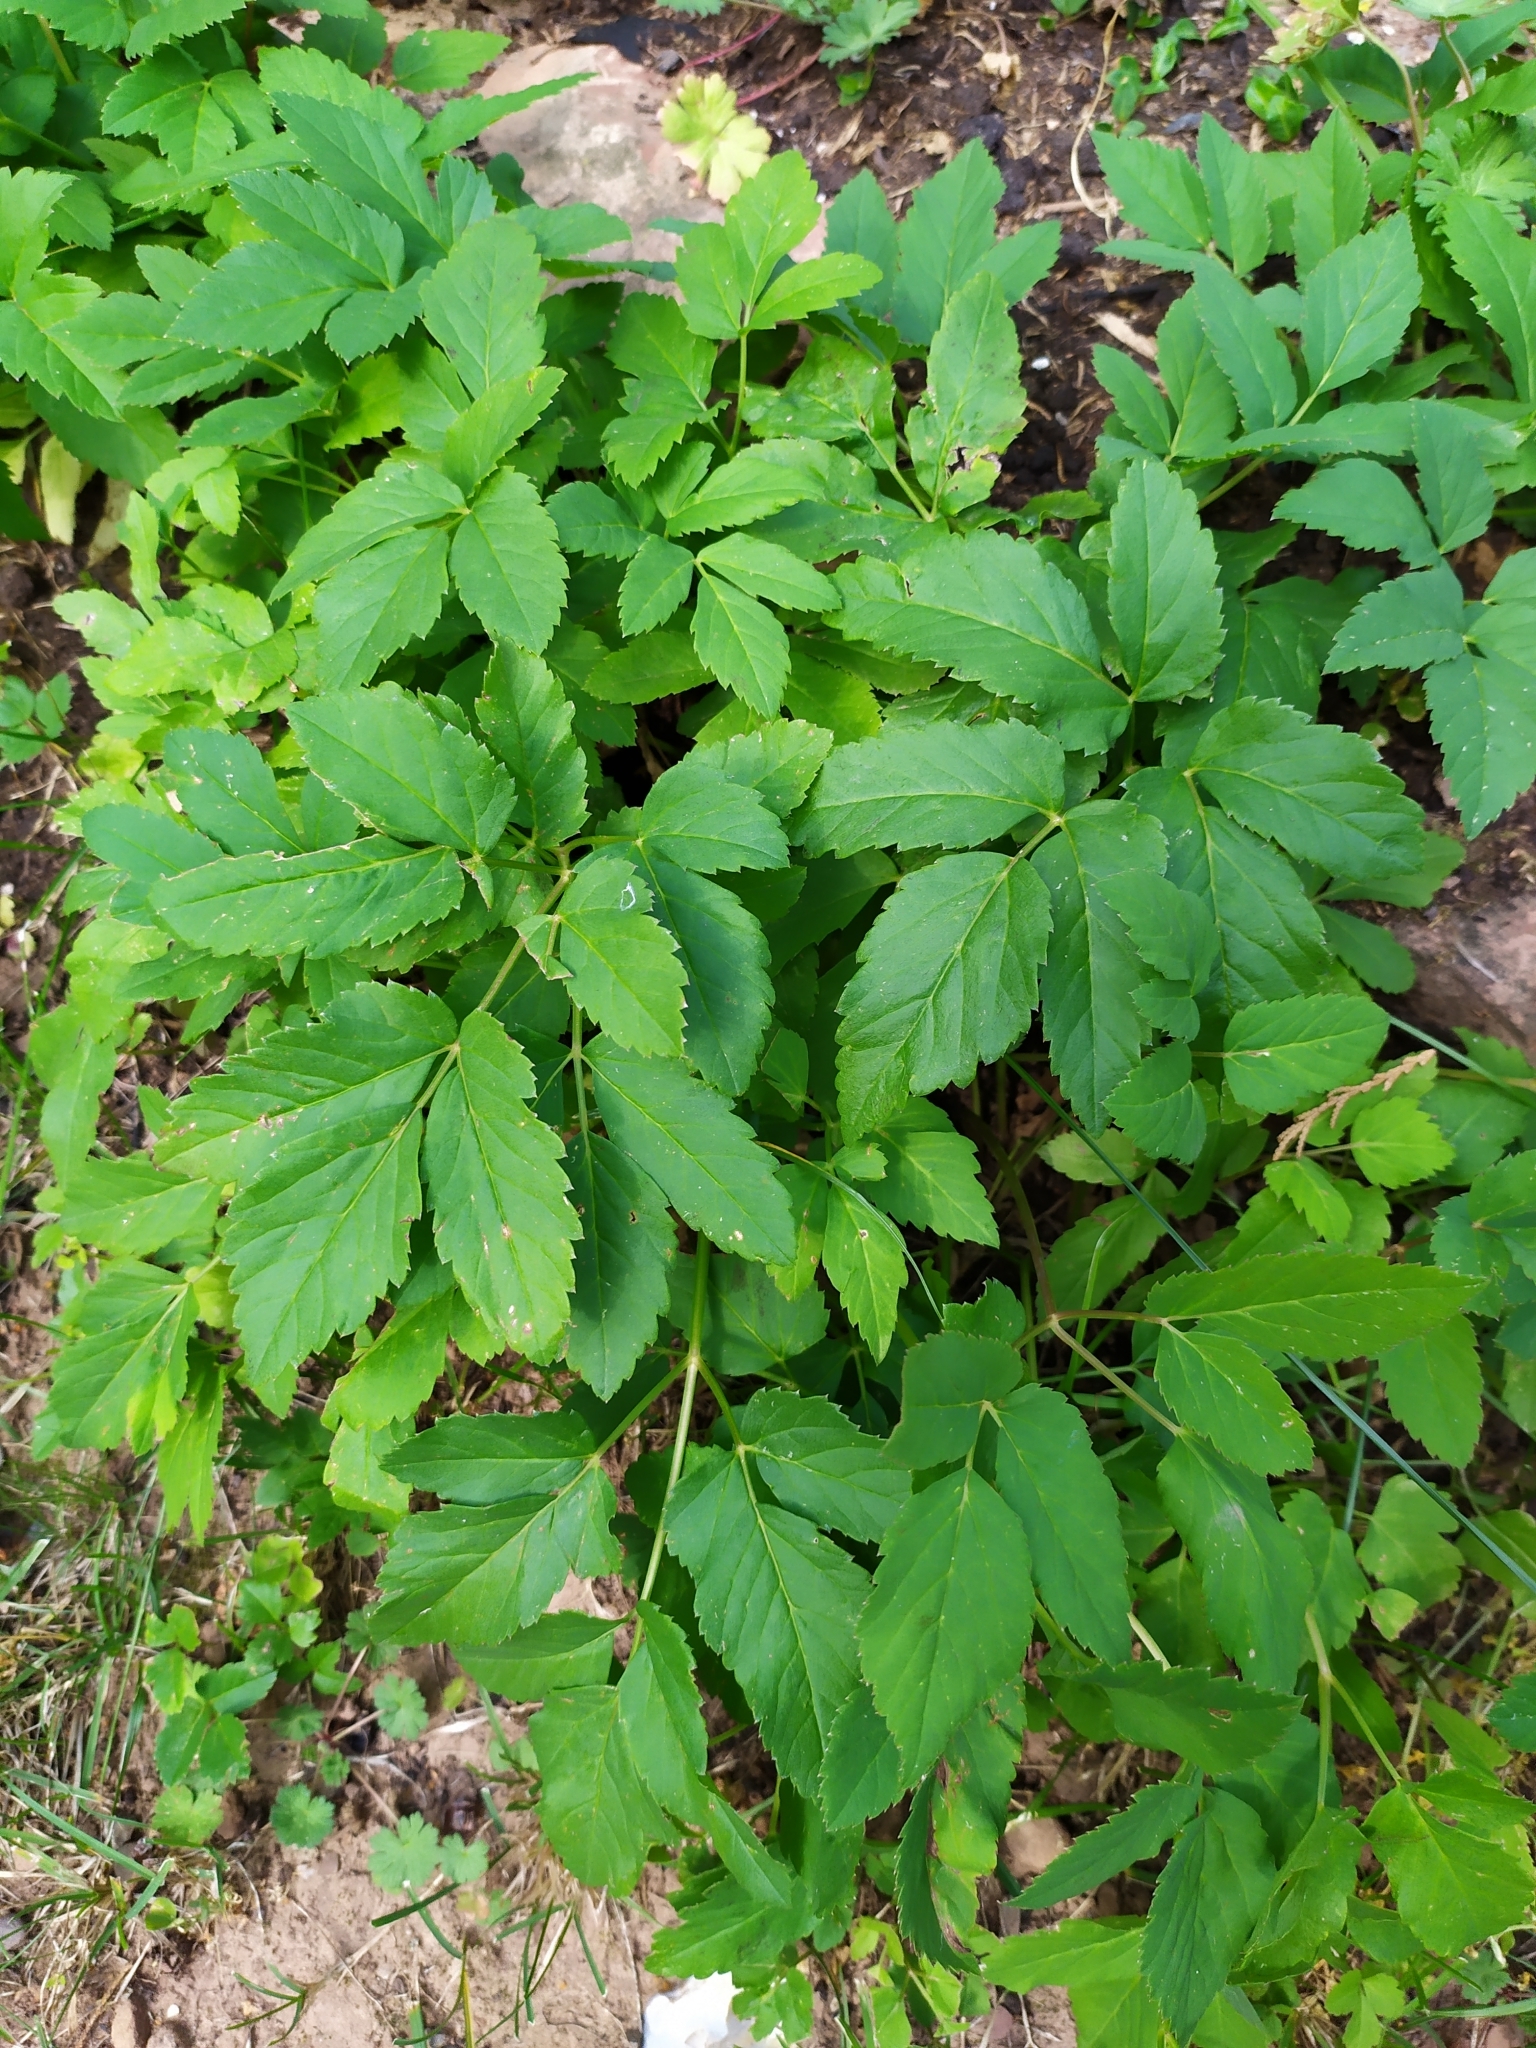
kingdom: Plantae
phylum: Tracheophyta
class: Magnoliopsida
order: Apiales
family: Apiaceae
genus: Aegopodium
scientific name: Aegopodium podagraria
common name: Ground-elder
